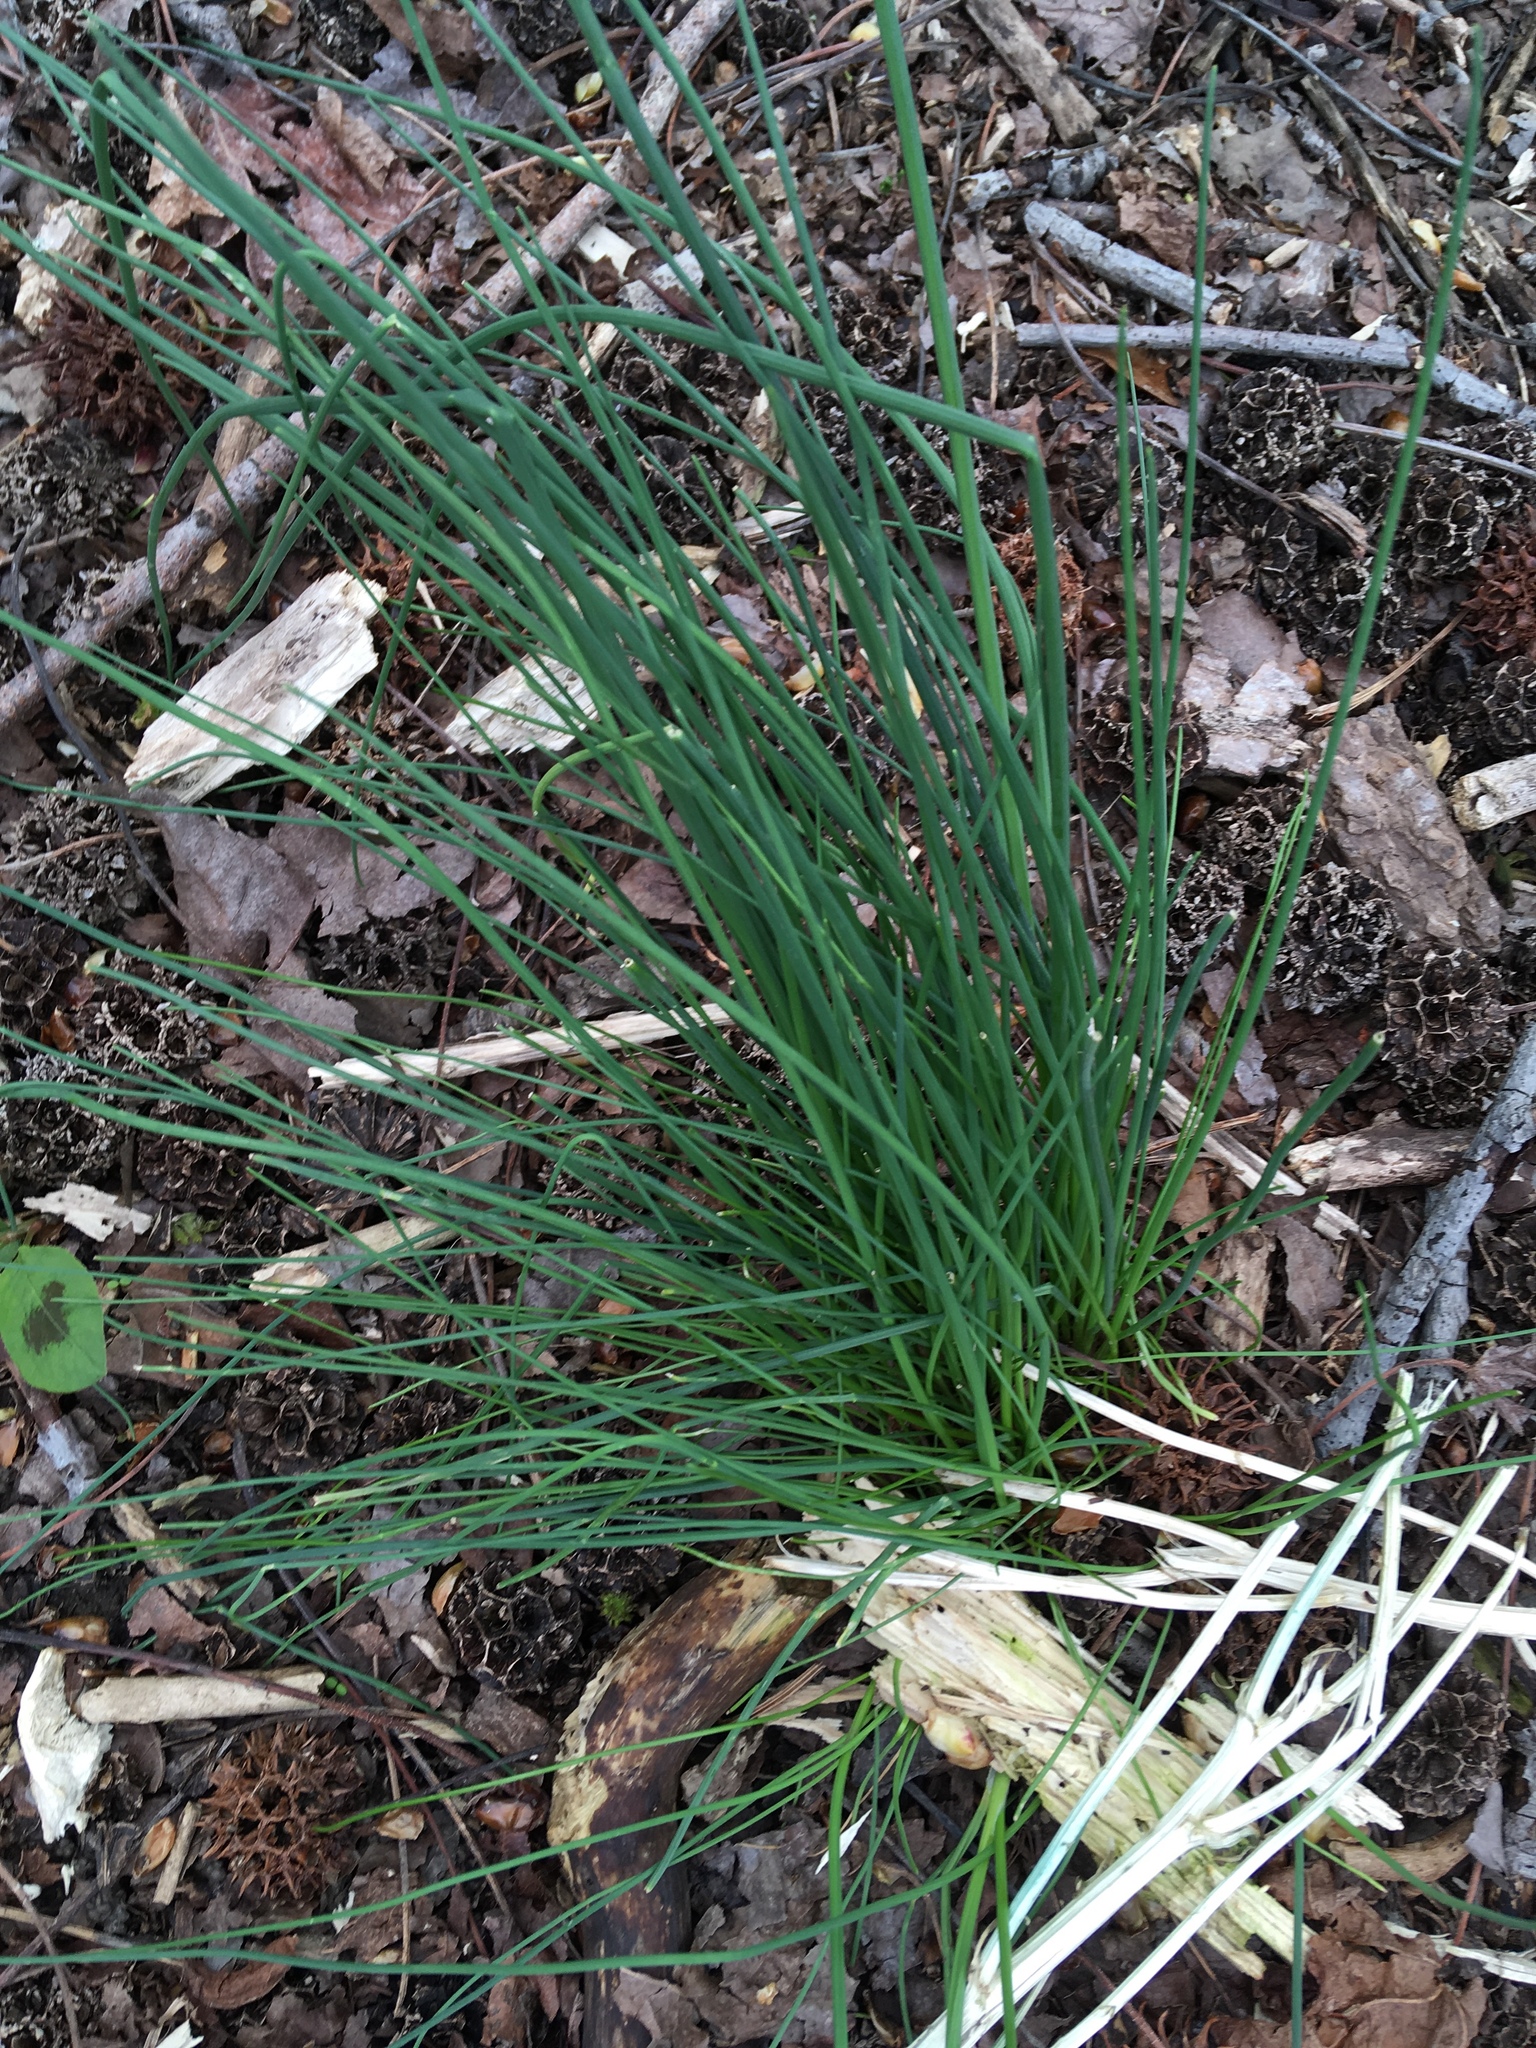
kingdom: Plantae
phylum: Tracheophyta
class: Liliopsida
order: Asparagales
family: Amaryllidaceae
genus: Allium
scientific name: Allium vineale
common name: Crow garlic
